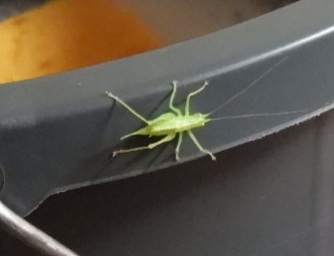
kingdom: Animalia
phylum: Arthropoda
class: Insecta
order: Orthoptera
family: Tettigoniidae
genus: Meconema
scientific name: Meconema thalassinum
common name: Oak bush-cricket
